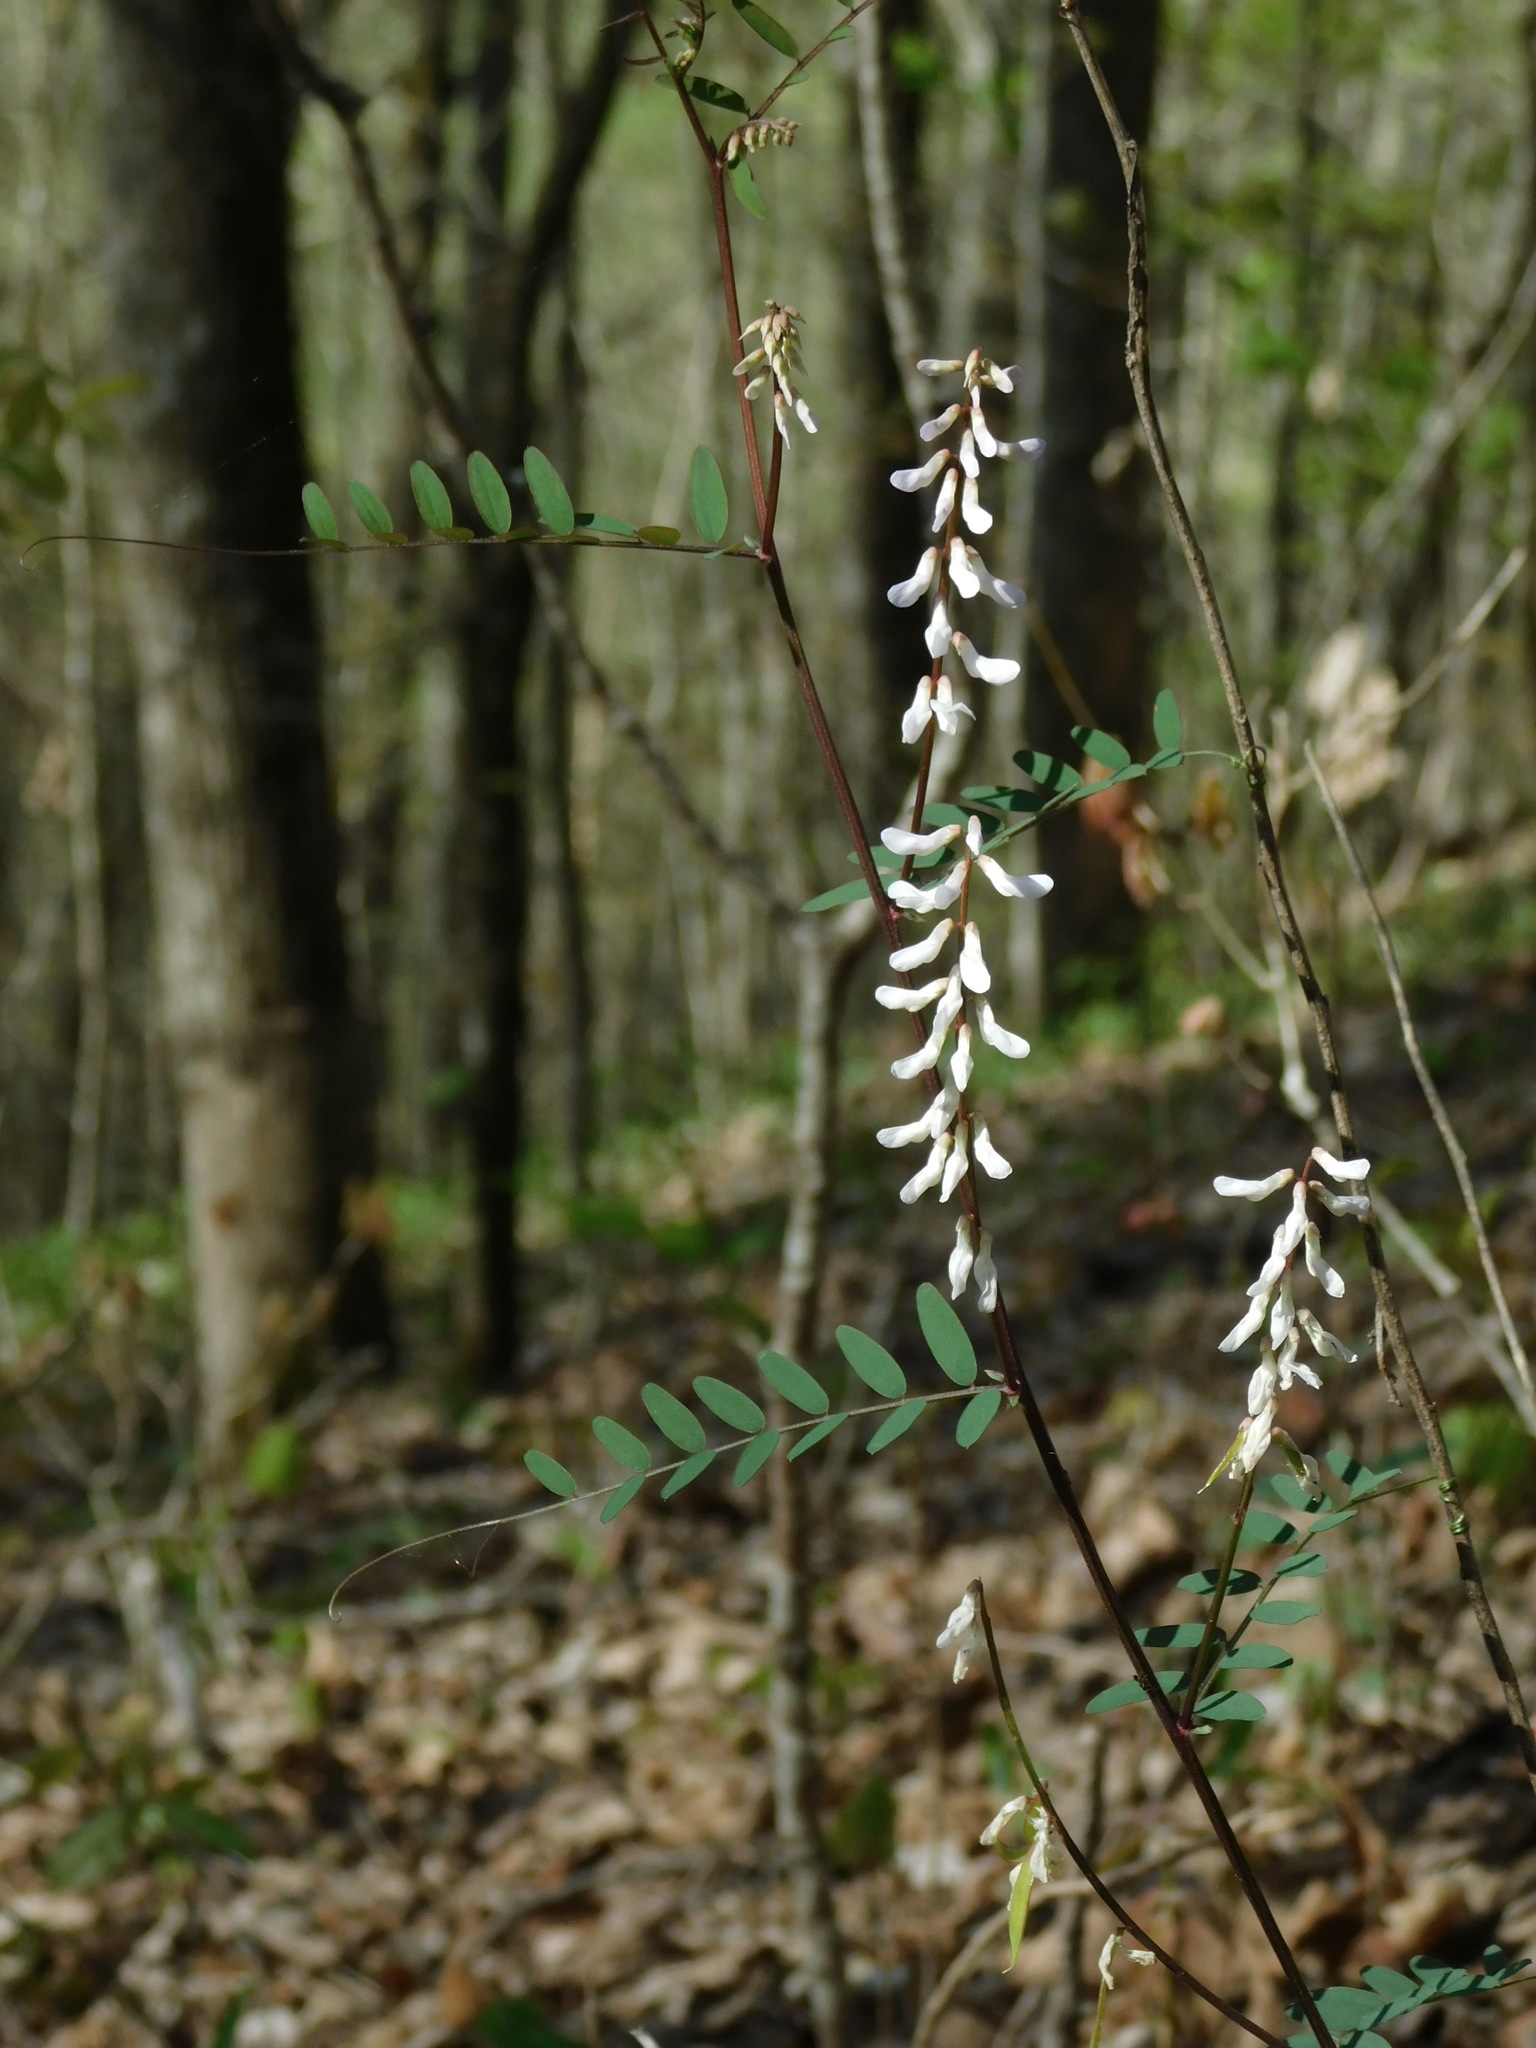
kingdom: Plantae
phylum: Tracheophyta
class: Magnoliopsida
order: Fabales
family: Fabaceae
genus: Vicia
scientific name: Vicia caroliniana
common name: Carolina vetch
